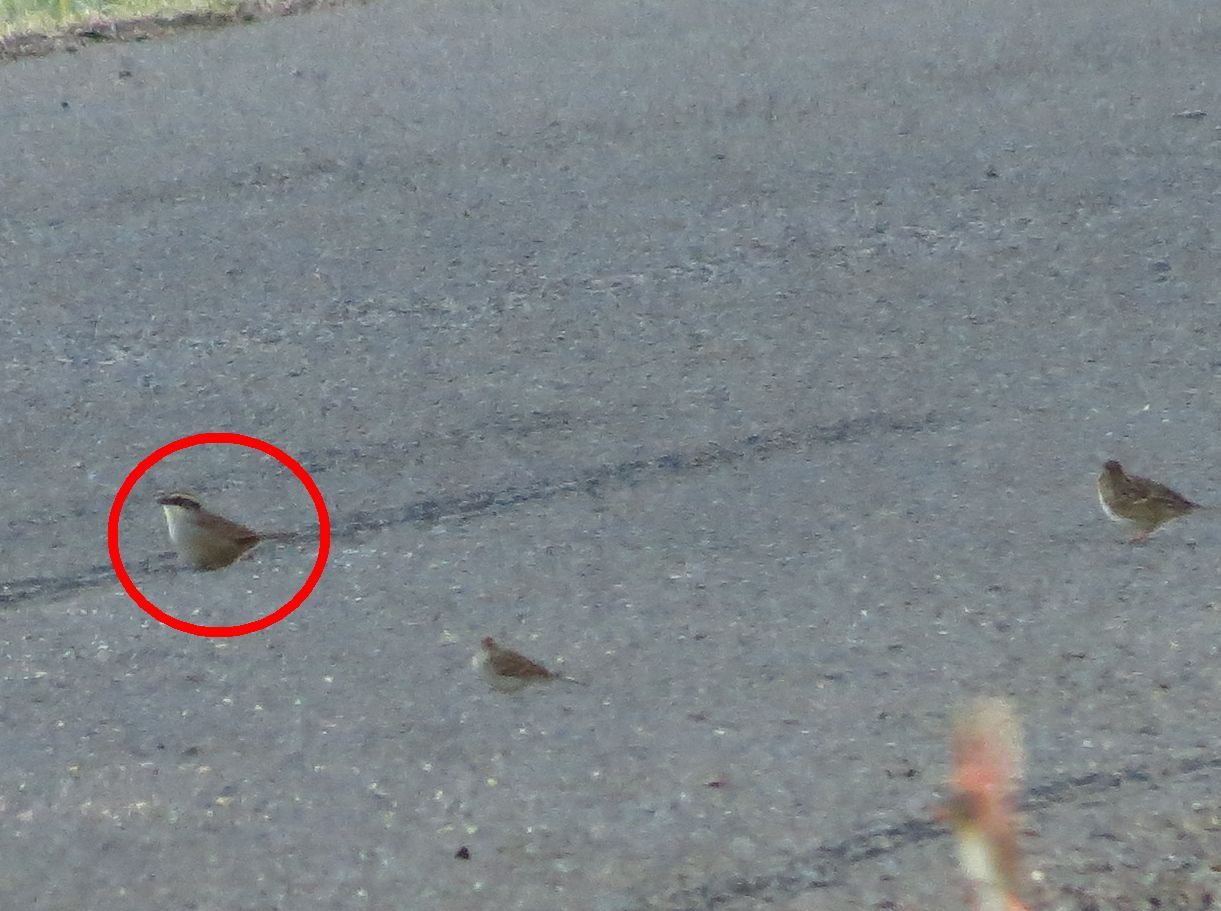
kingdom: Animalia
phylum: Chordata
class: Aves
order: Passeriformes
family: Passerellidae
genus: Oriturus
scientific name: Oriturus superciliosus
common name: Striped sparrow
